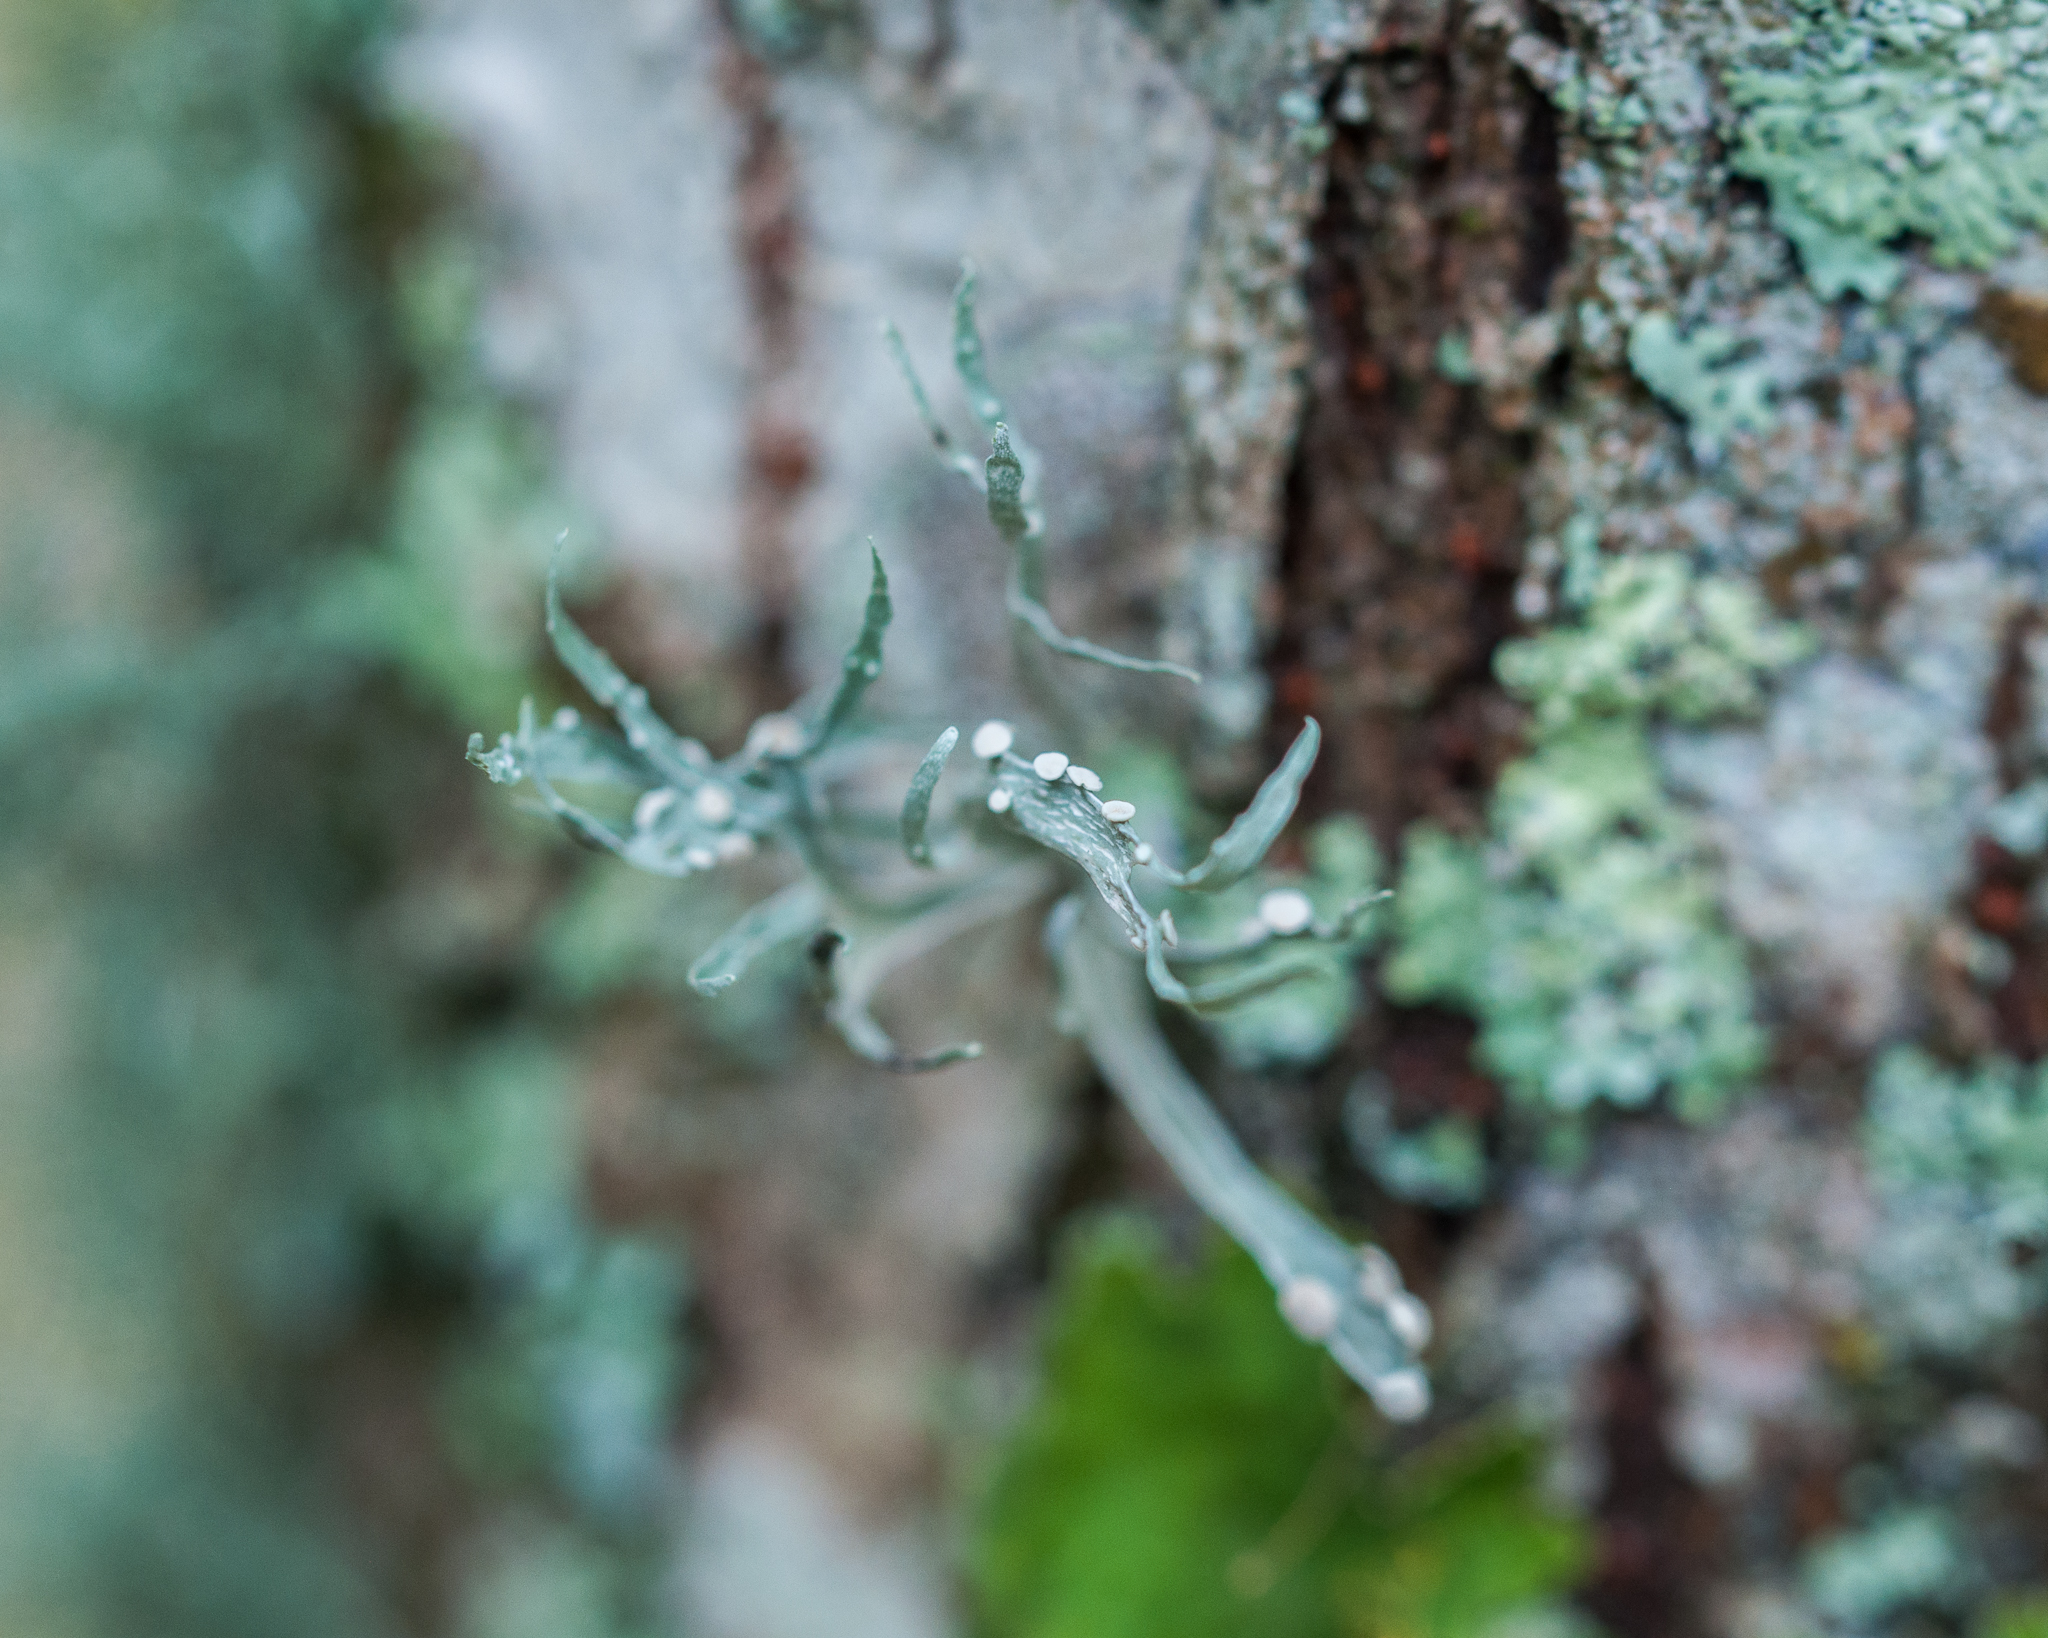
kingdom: Fungi
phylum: Ascomycota
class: Lecanoromycetes
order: Lecanorales
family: Ramalinaceae
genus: Ramalina
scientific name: Ramalina celastri
